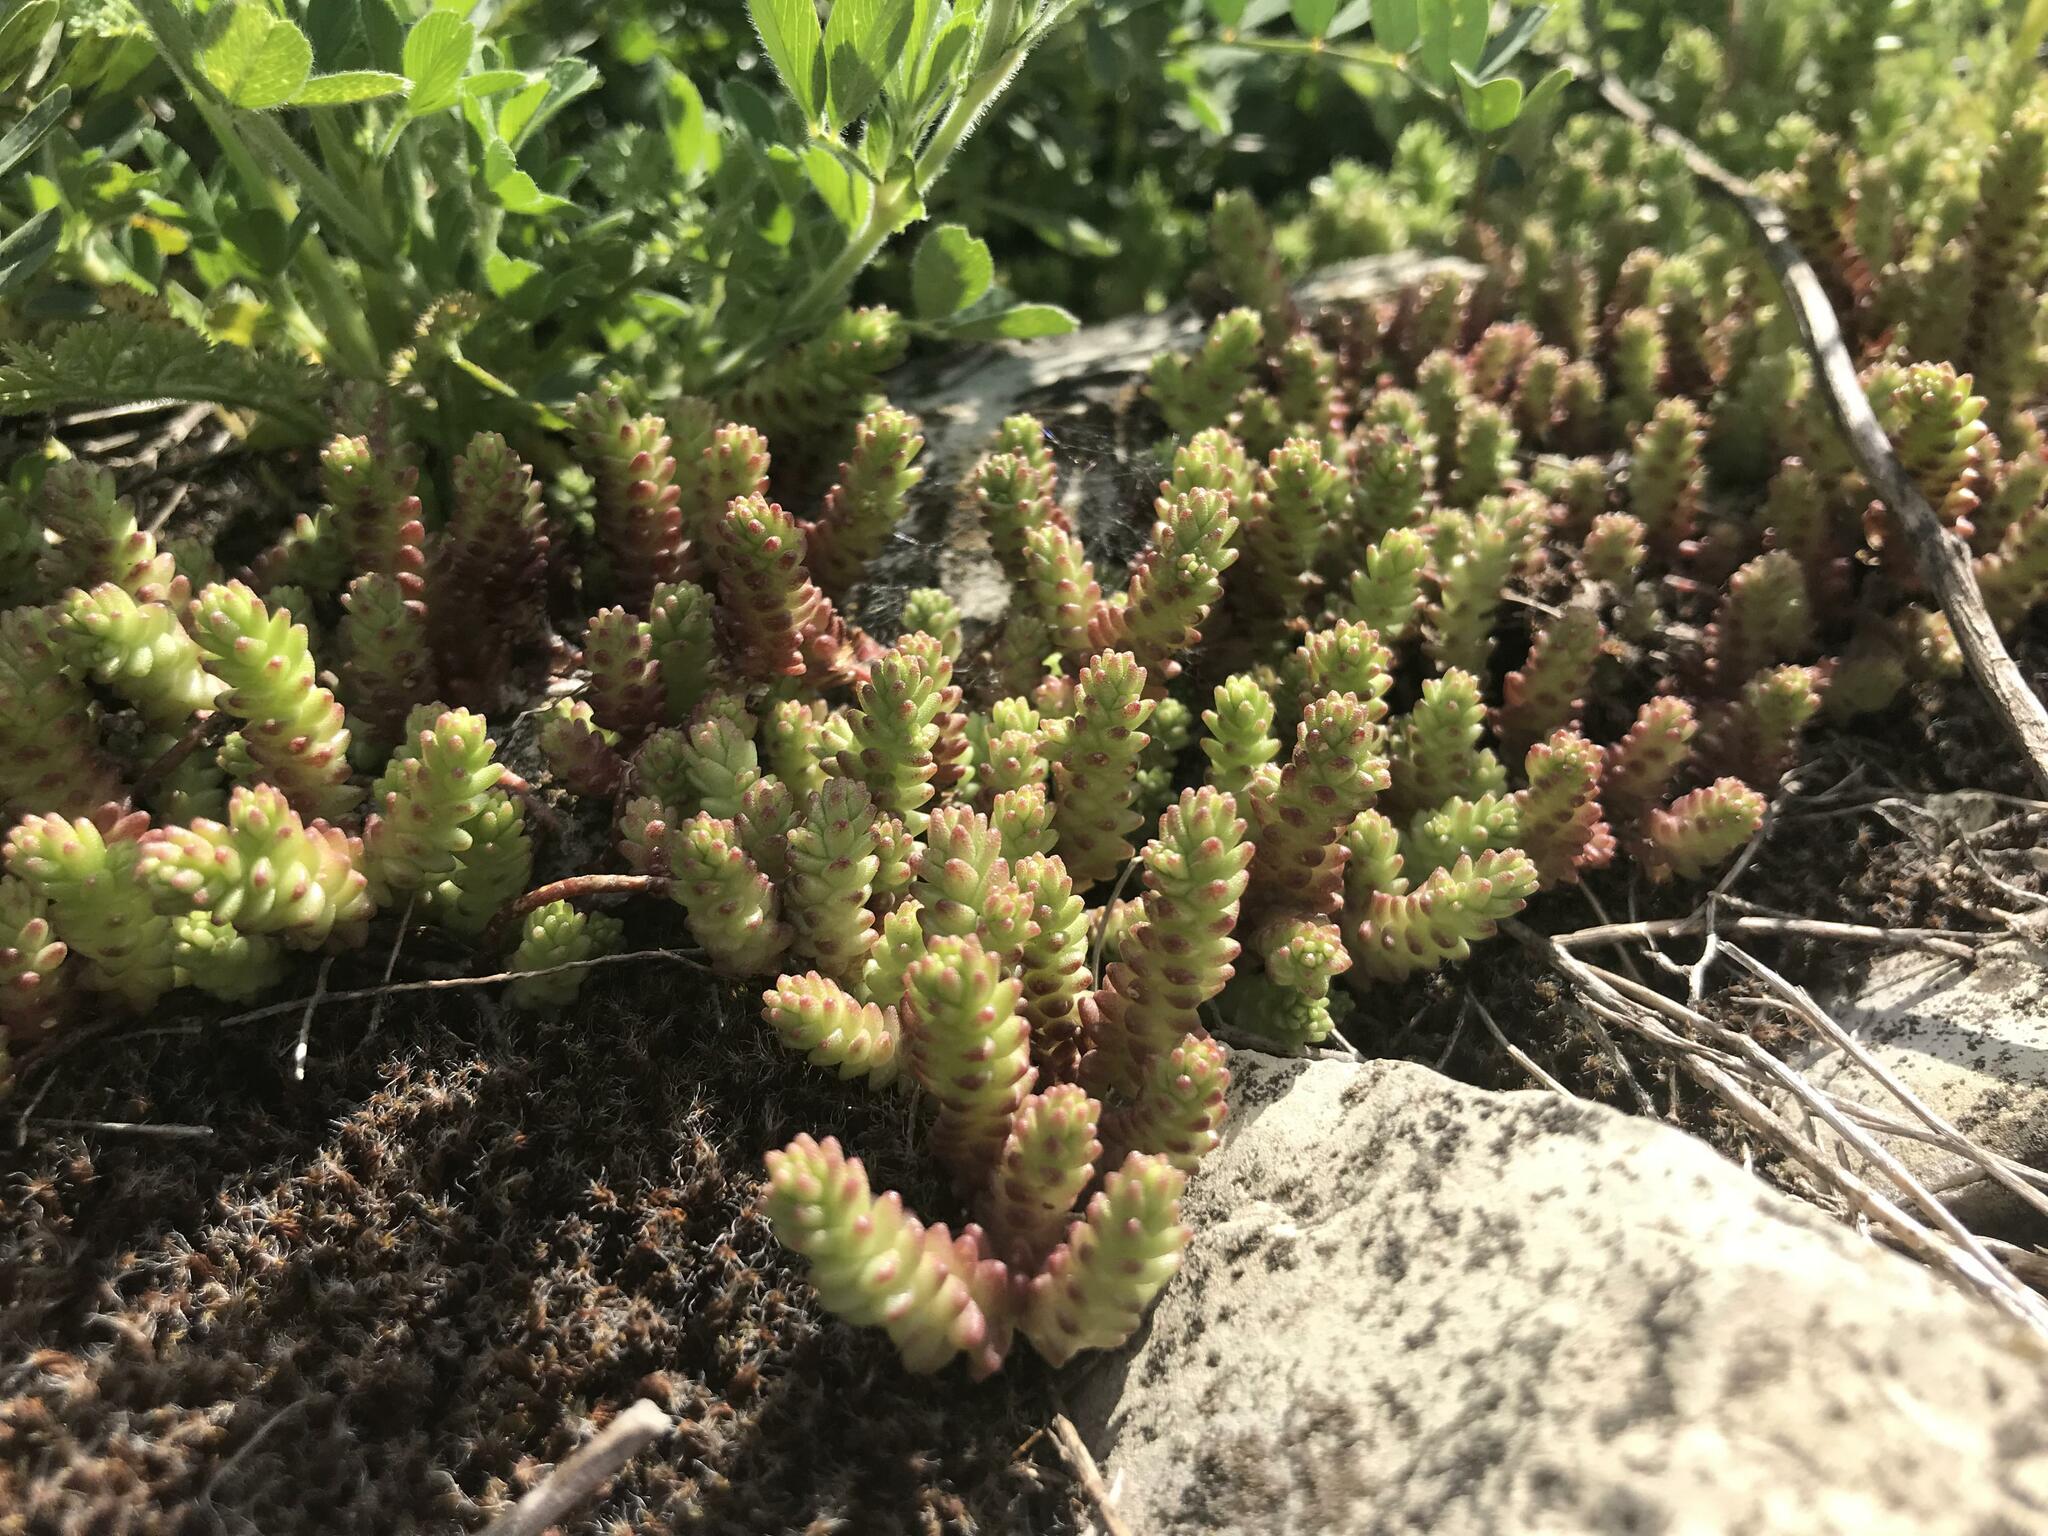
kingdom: Plantae
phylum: Tracheophyta
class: Magnoliopsida
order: Saxifragales
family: Crassulaceae
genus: Sedum
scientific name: Sedum acre
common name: Biting stonecrop
